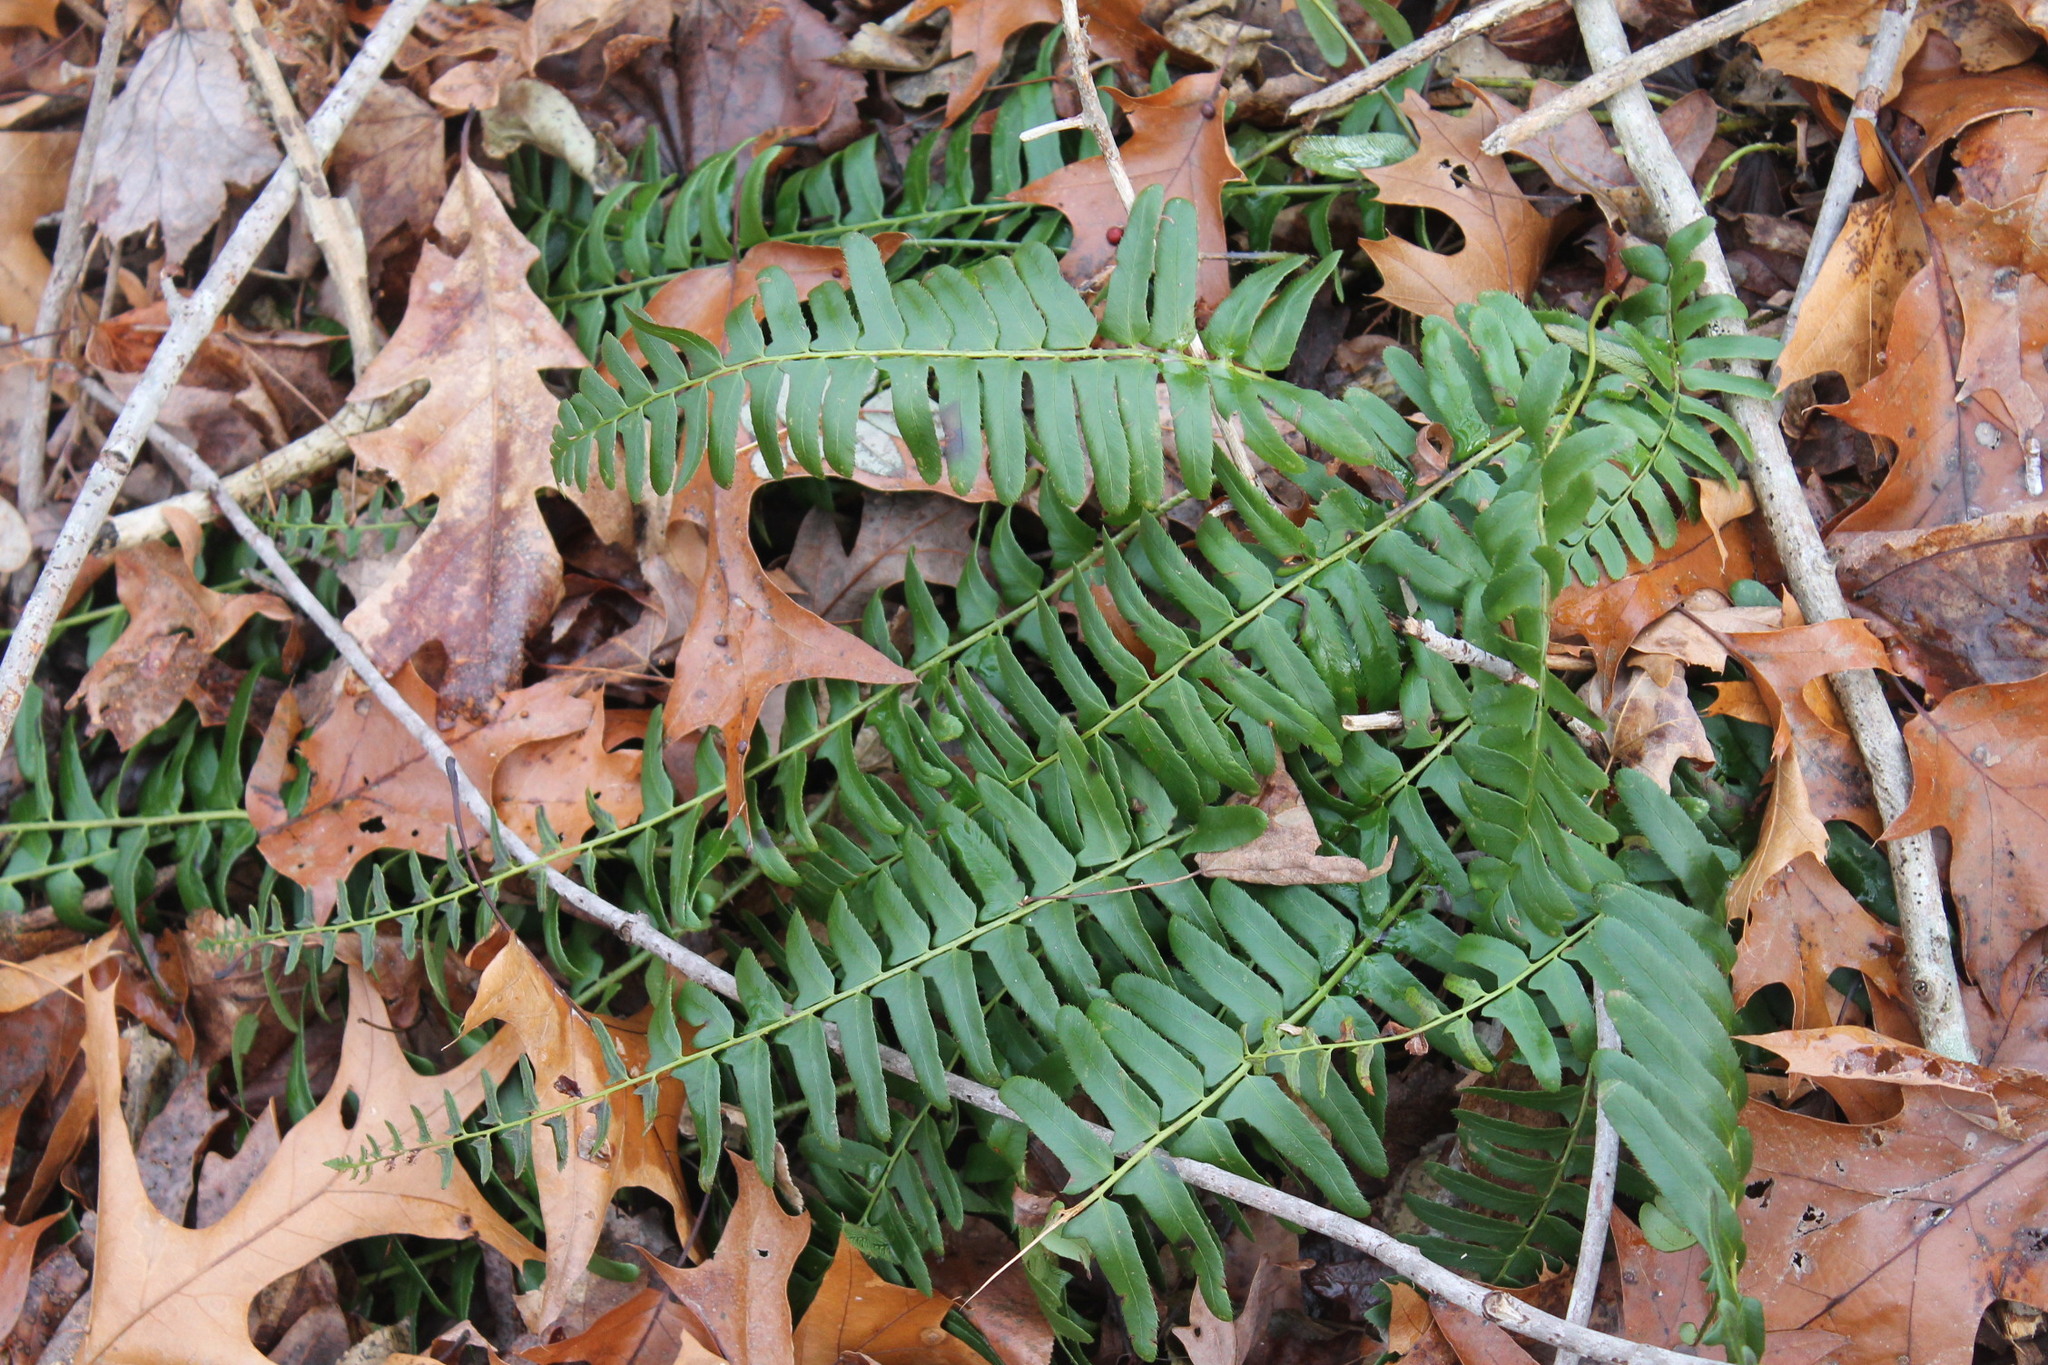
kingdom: Plantae
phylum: Tracheophyta
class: Polypodiopsida
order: Polypodiales
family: Dryopteridaceae
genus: Polystichum
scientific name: Polystichum acrostichoides
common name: Christmas fern
